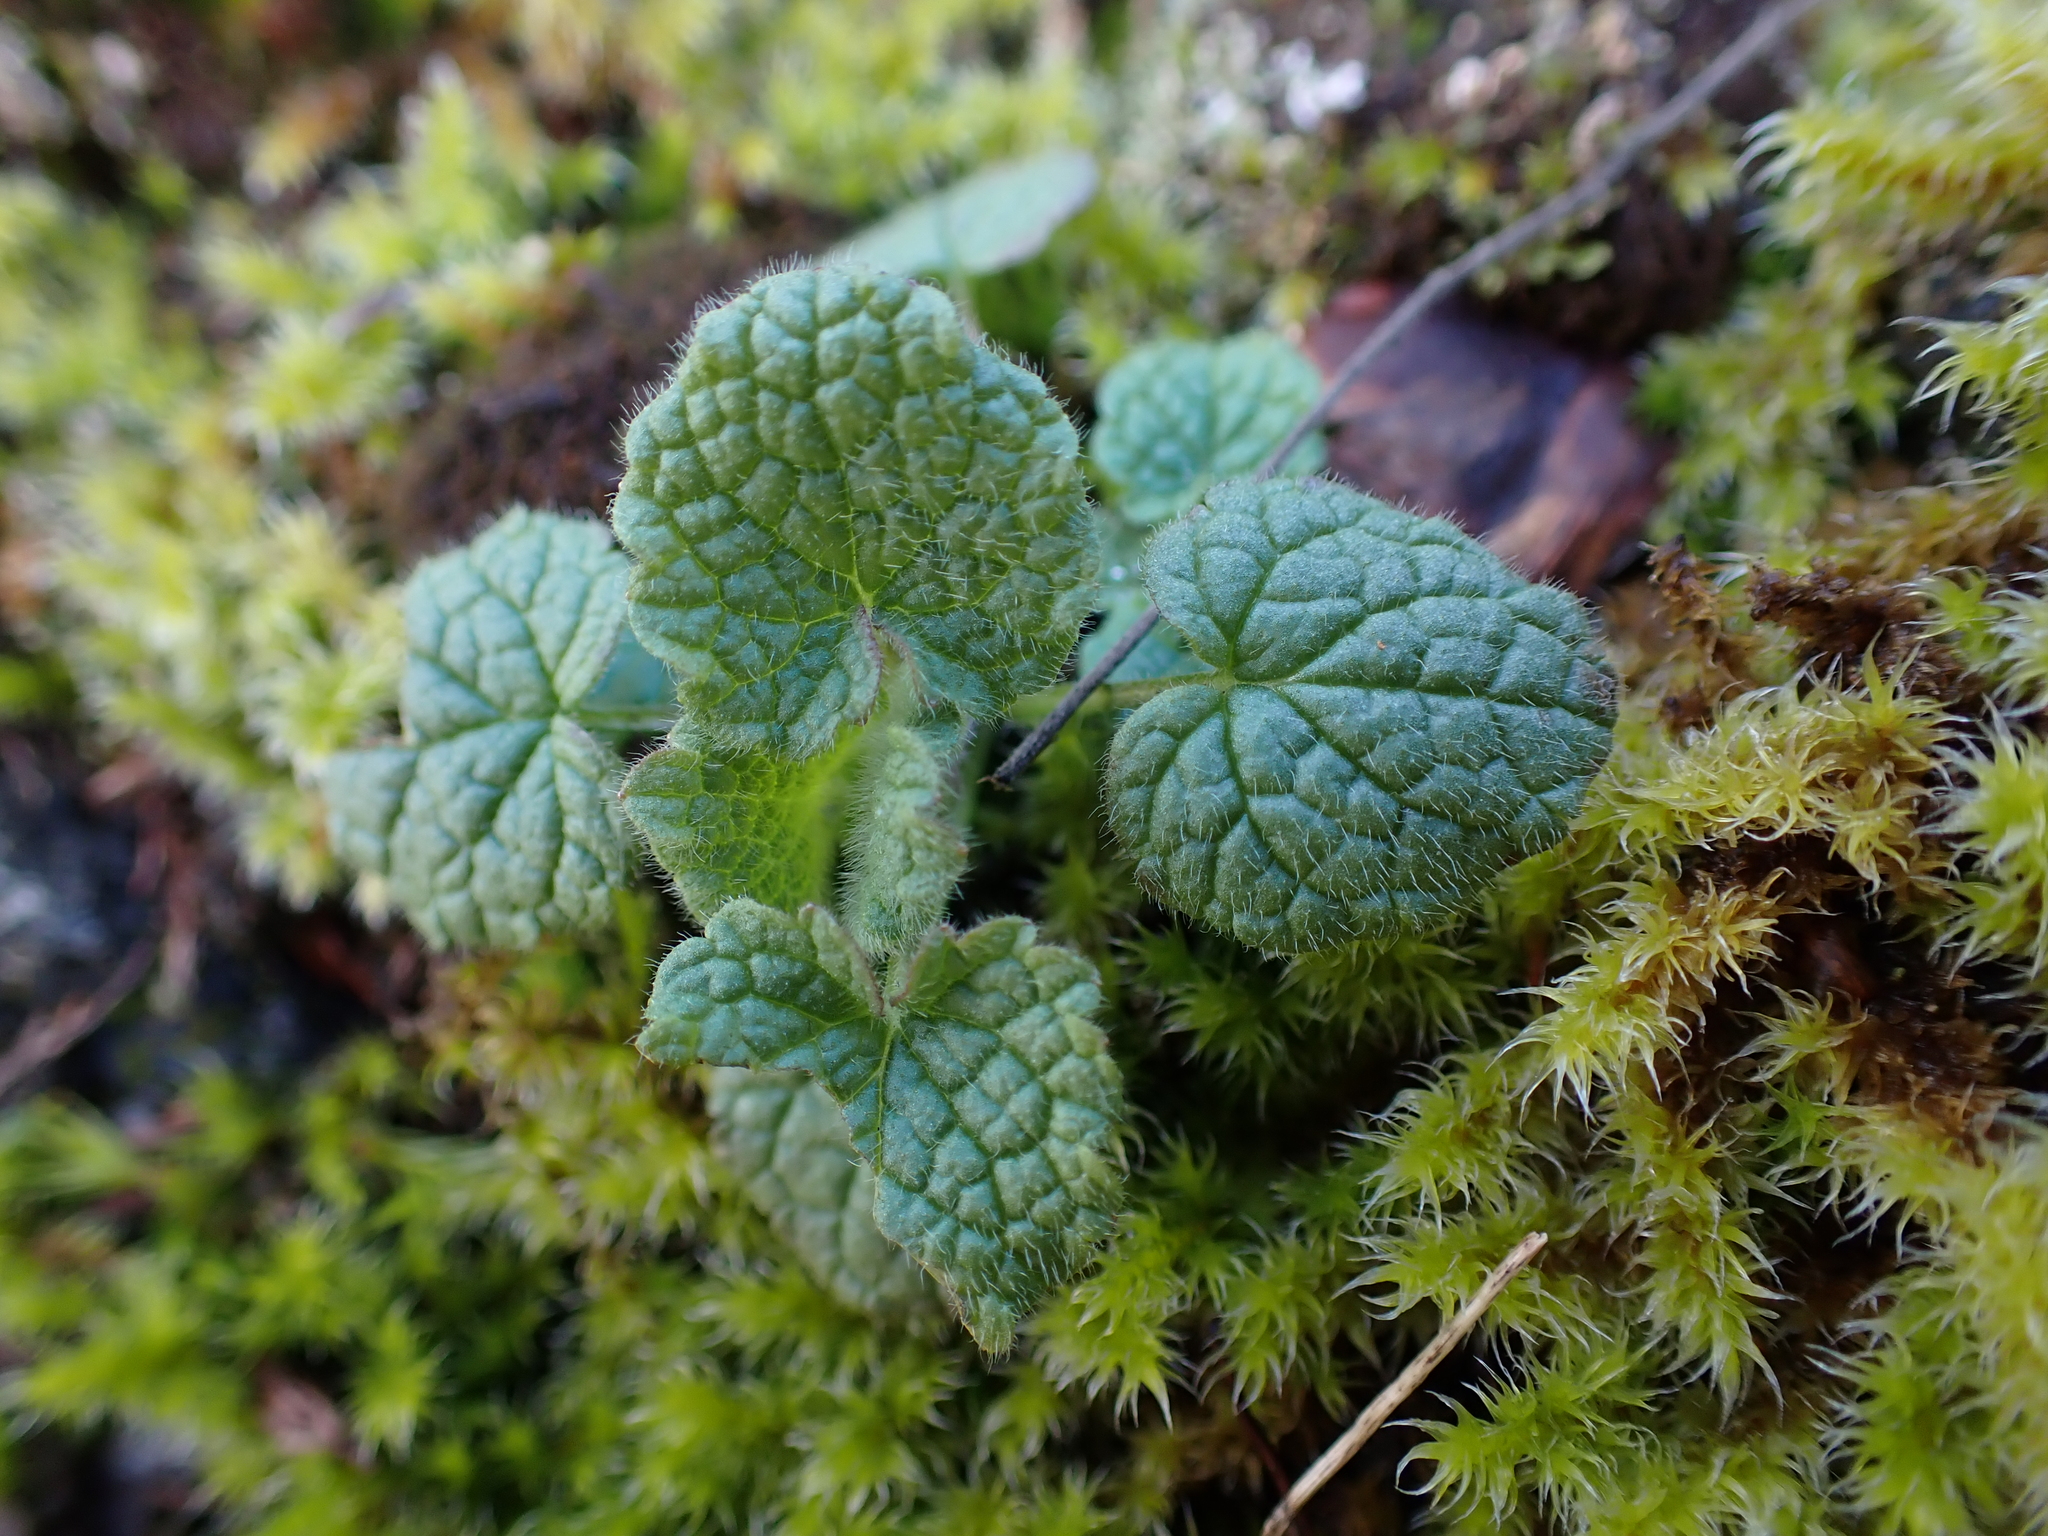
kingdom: Plantae
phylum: Tracheophyta
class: Magnoliopsida
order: Lamiales
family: Lamiaceae
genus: Lamium
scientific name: Lamium purpureum
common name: Red dead-nettle
